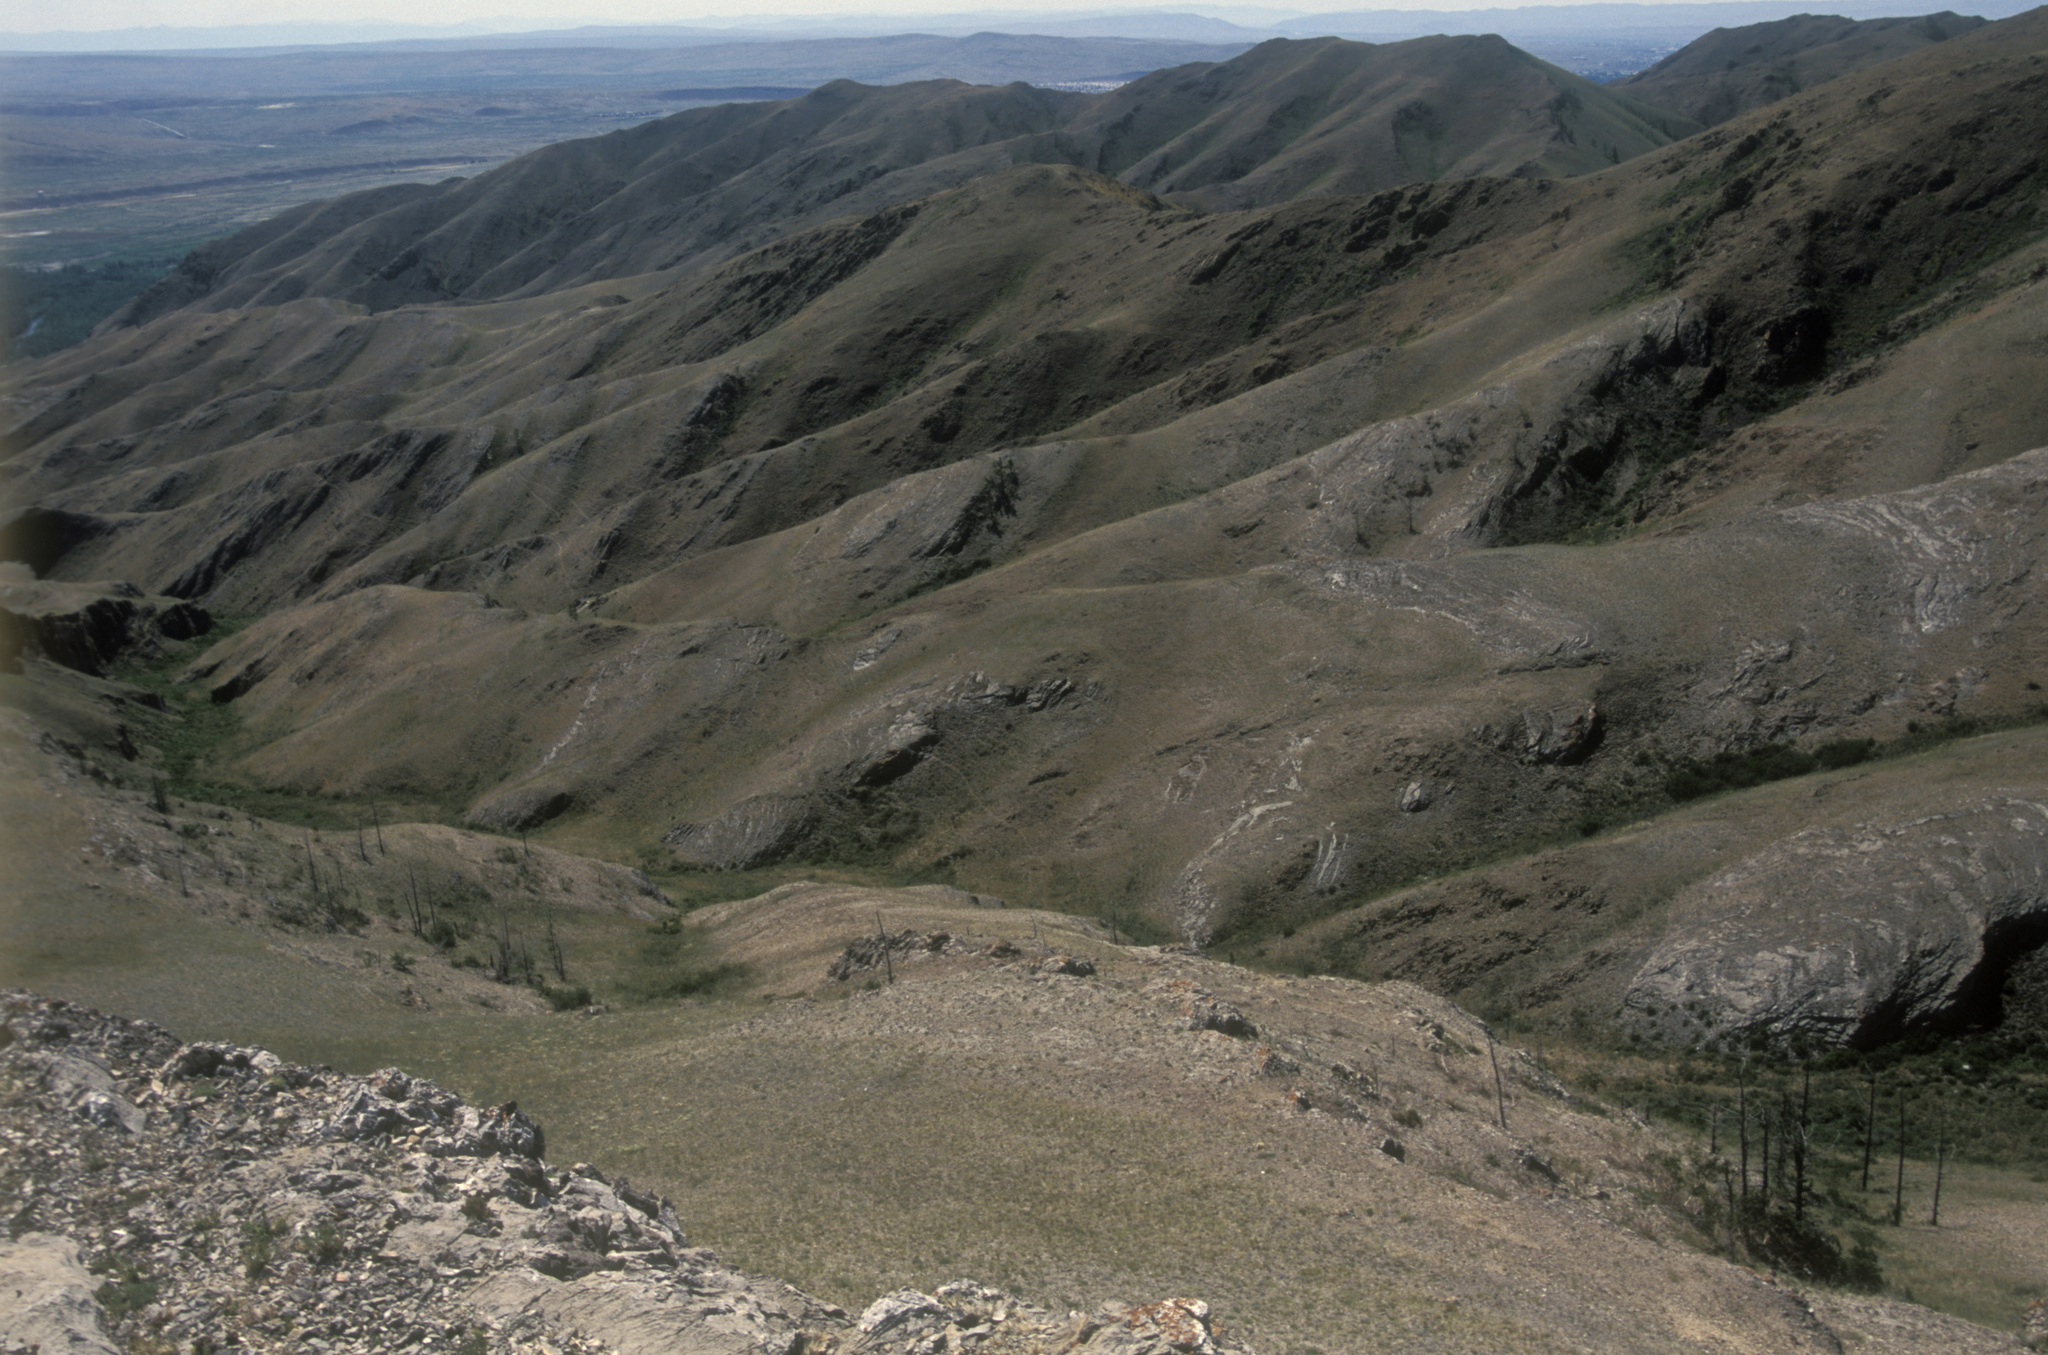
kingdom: Plantae
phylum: Tracheophyta
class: Pinopsida
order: Pinales
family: Pinaceae
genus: Larix
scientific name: Larix sibirica
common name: Siberian larch
